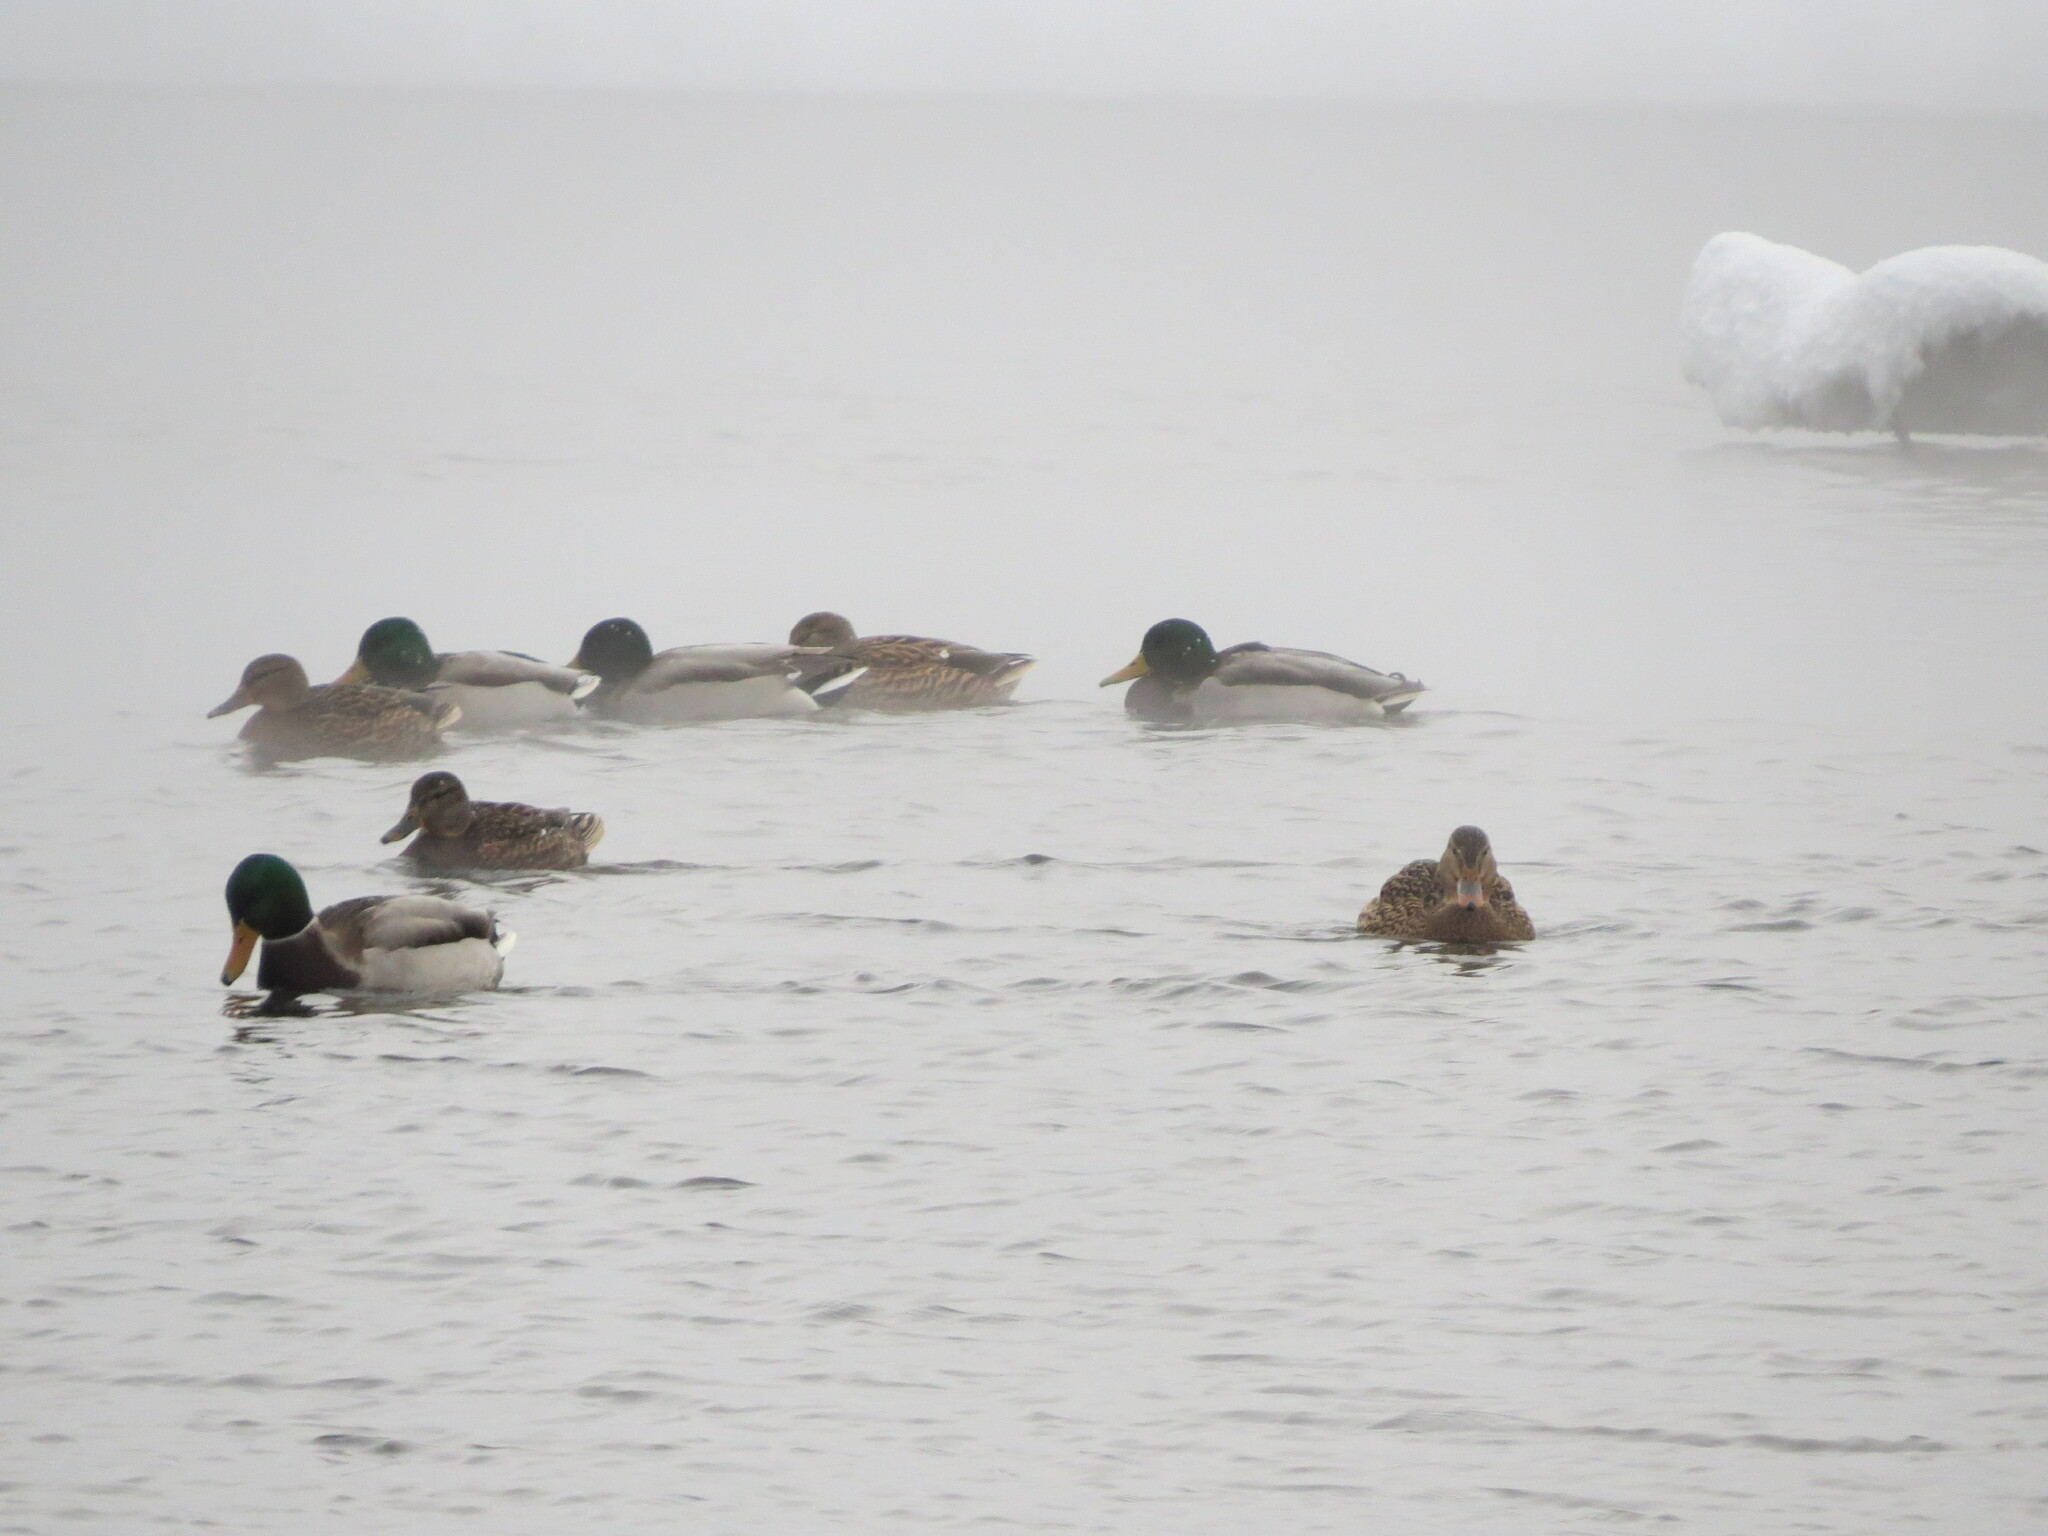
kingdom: Animalia
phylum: Chordata
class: Aves
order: Anseriformes
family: Anatidae
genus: Anas
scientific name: Anas platyrhynchos
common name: Mallard
